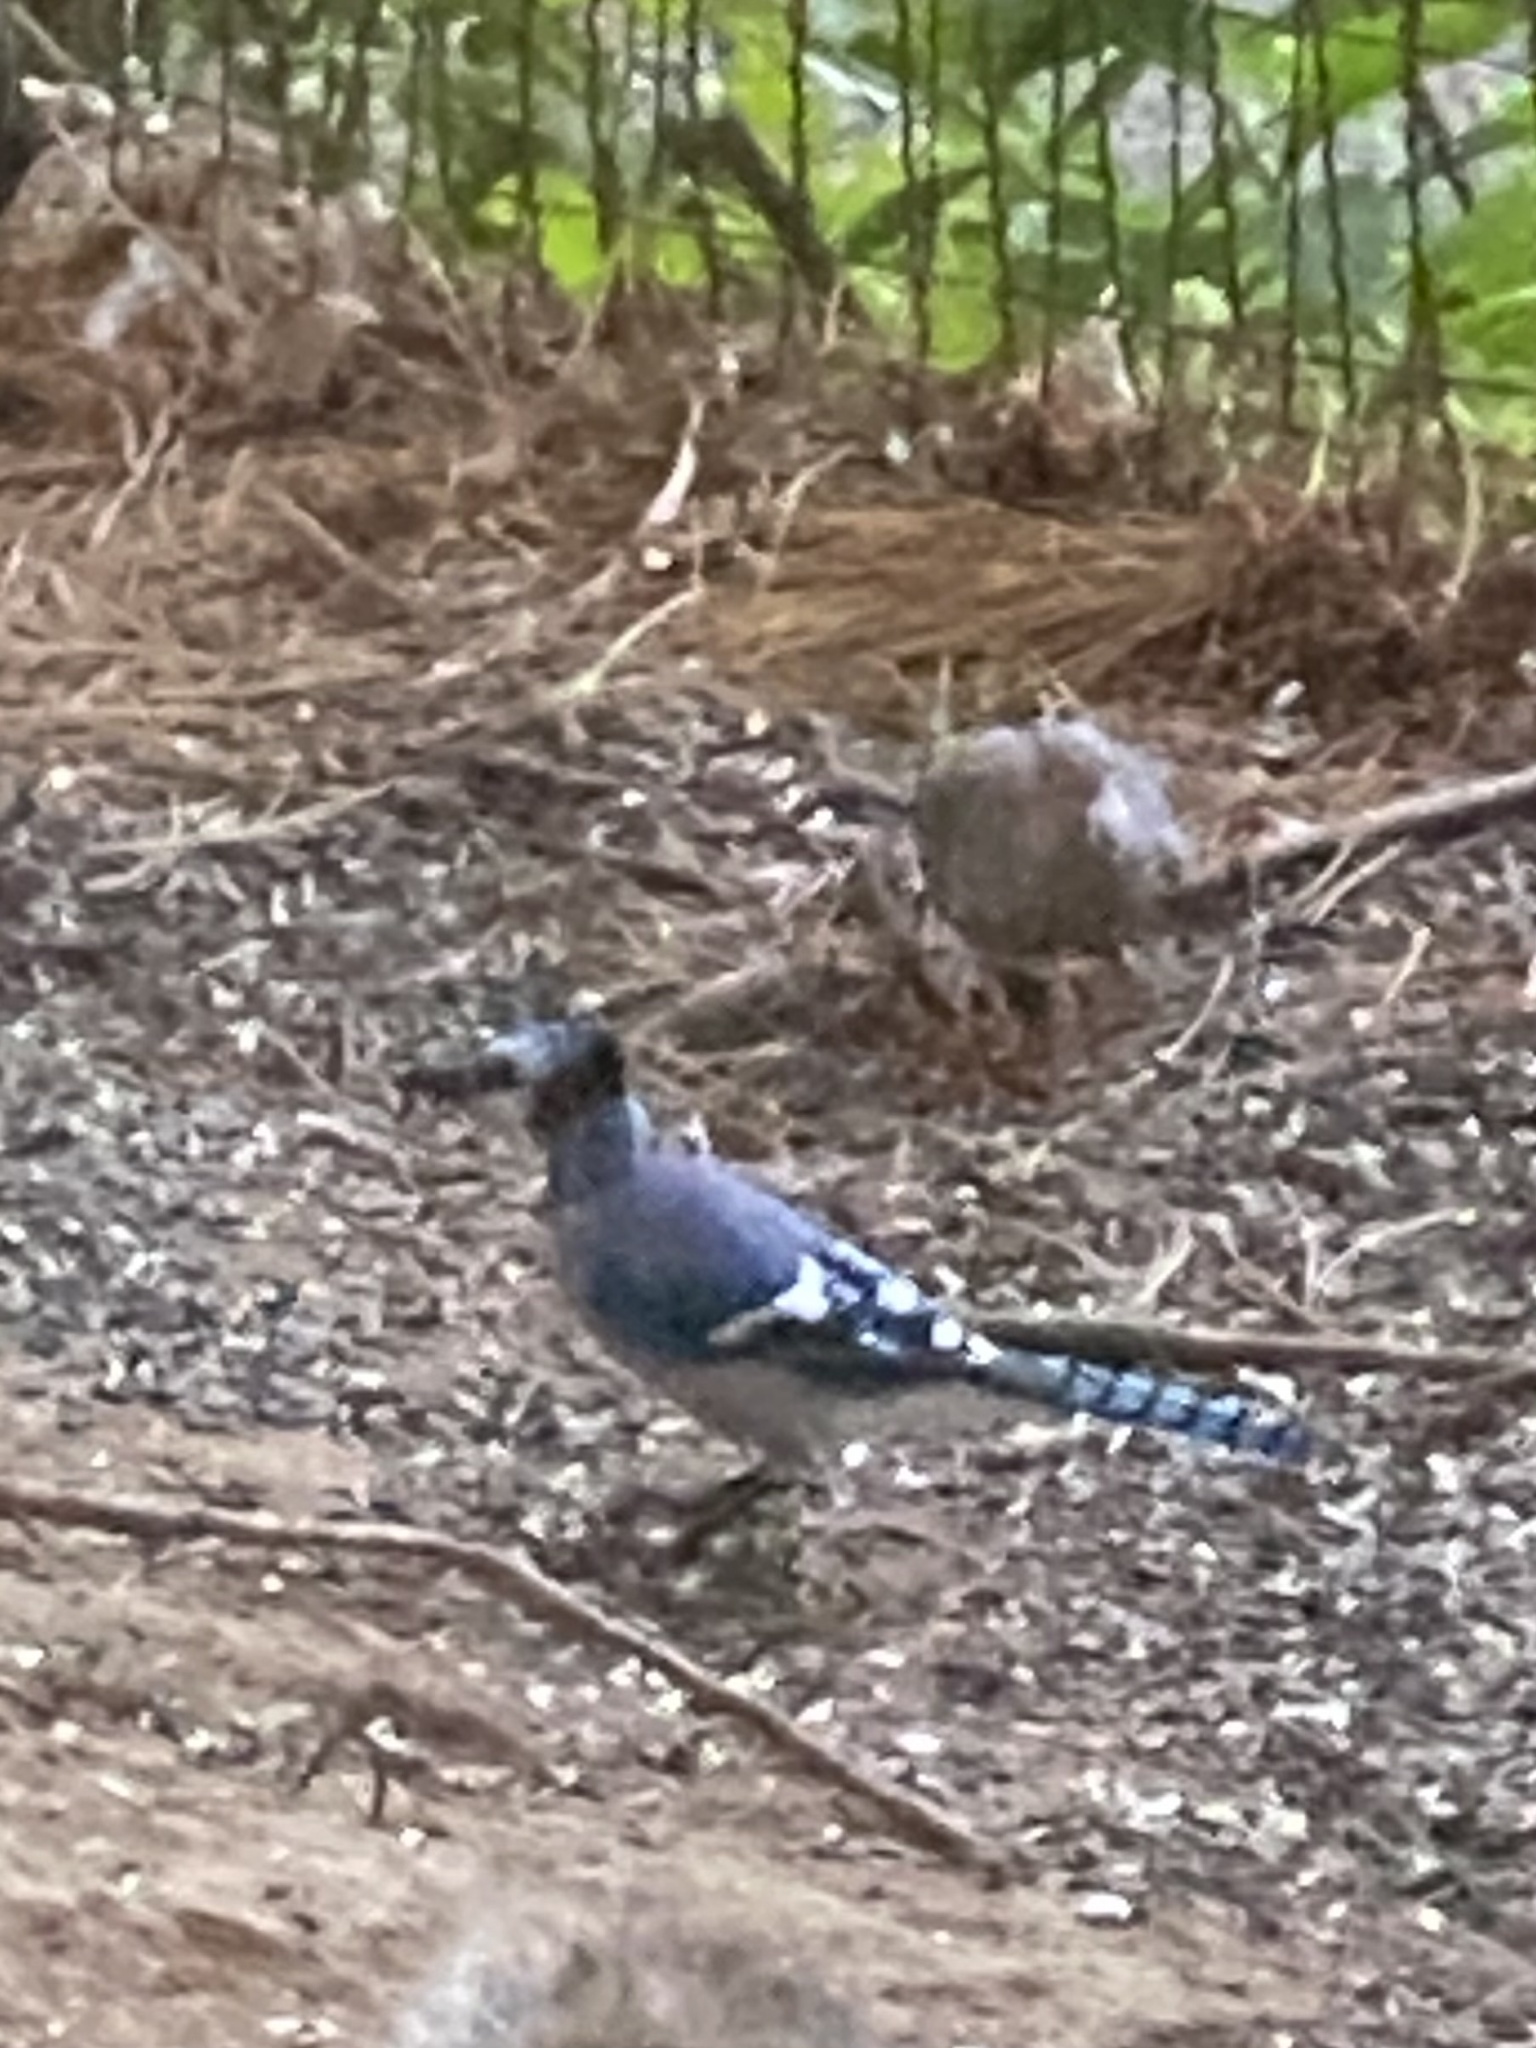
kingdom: Animalia
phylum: Chordata
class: Aves
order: Passeriformes
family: Corvidae
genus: Cyanocitta
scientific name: Cyanocitta cristata
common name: Blue jay
